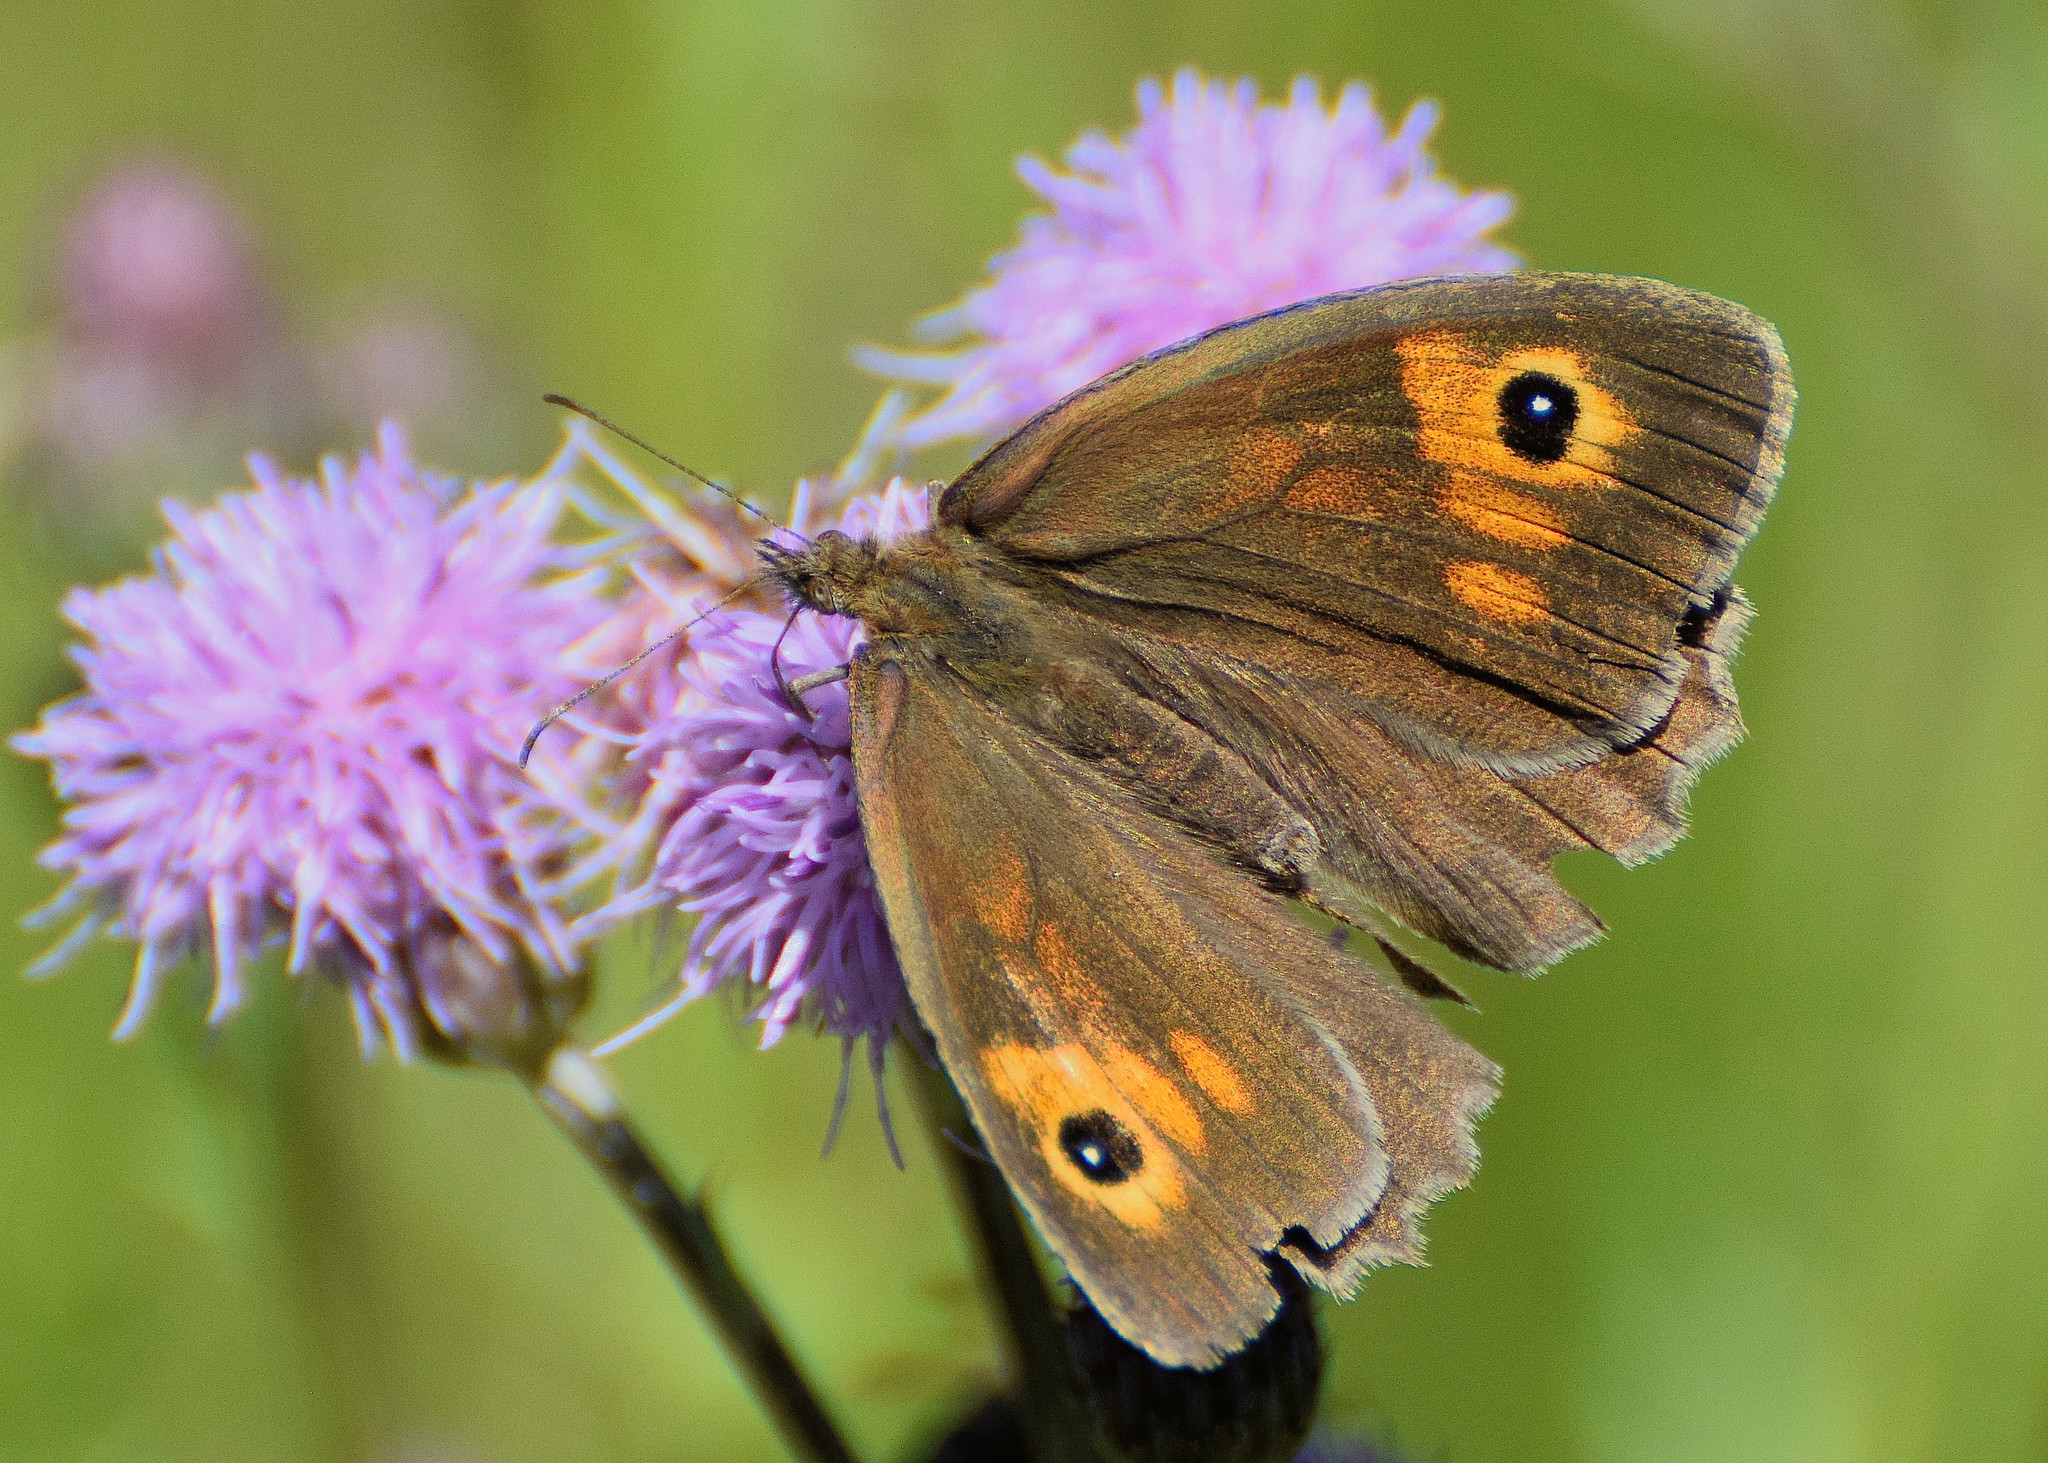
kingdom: Animalia
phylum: Arthropoda
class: Insecta
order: Lepidoptera
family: Nymphalidae
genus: Maniola
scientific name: Maniola jurtina
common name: Meadow brown
